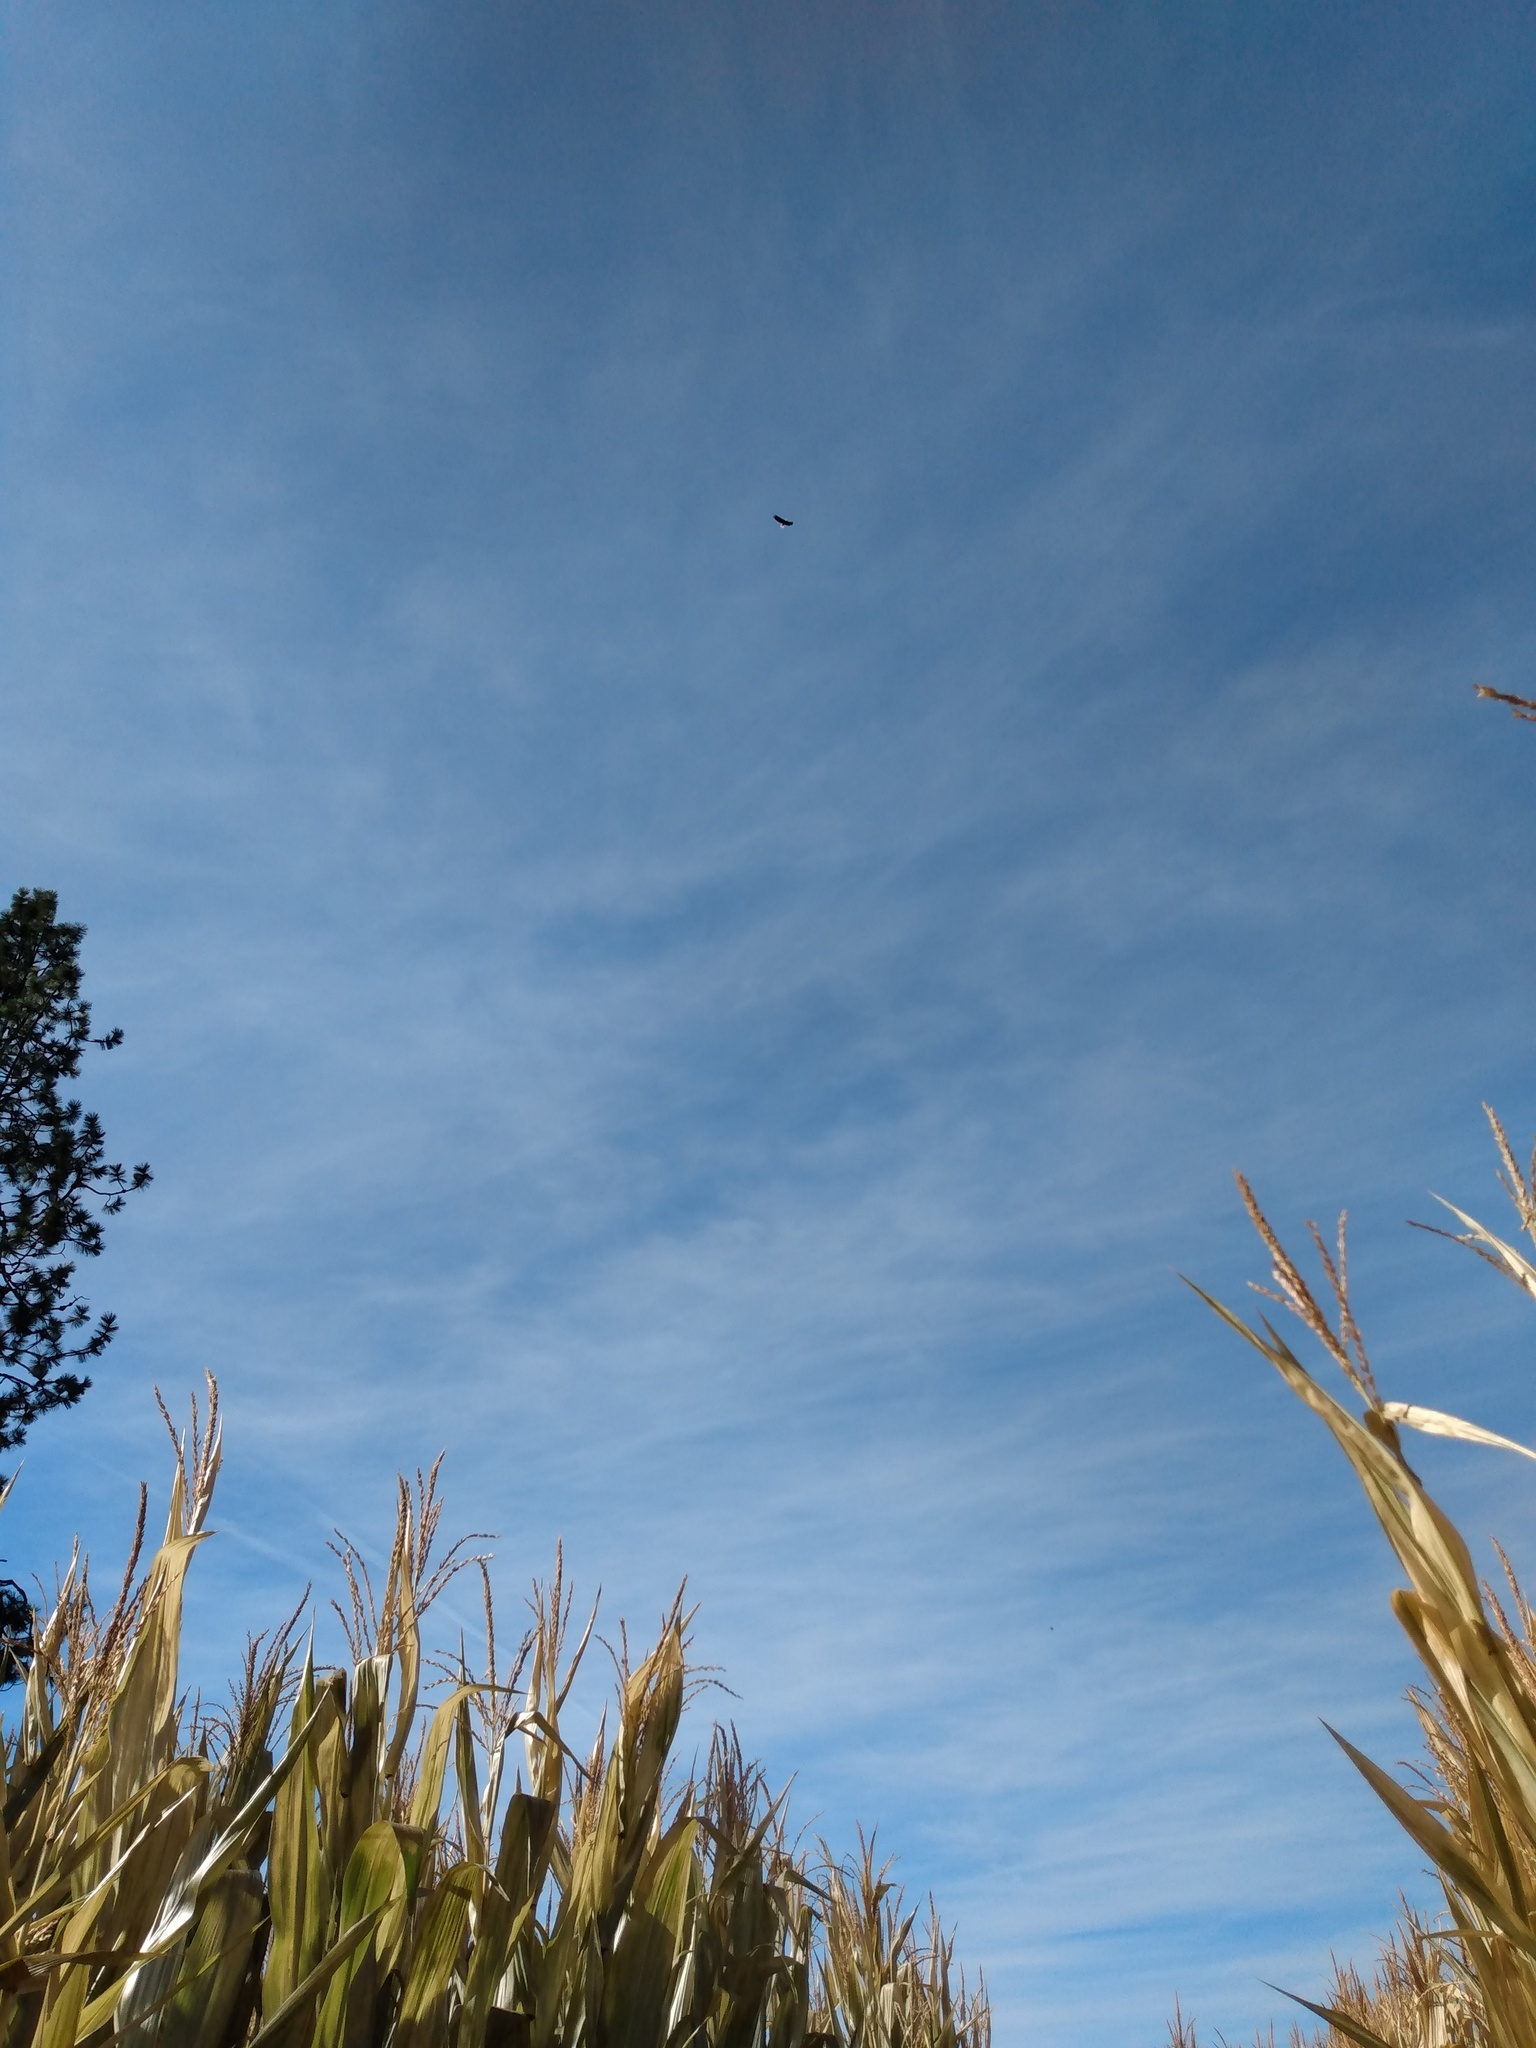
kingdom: Animalia
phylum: Chordata
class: Aves
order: Accipitriformes
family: Accipitridae
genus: Haliaeetus
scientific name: Haliaeetus leucocephalus
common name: Bald eagle
